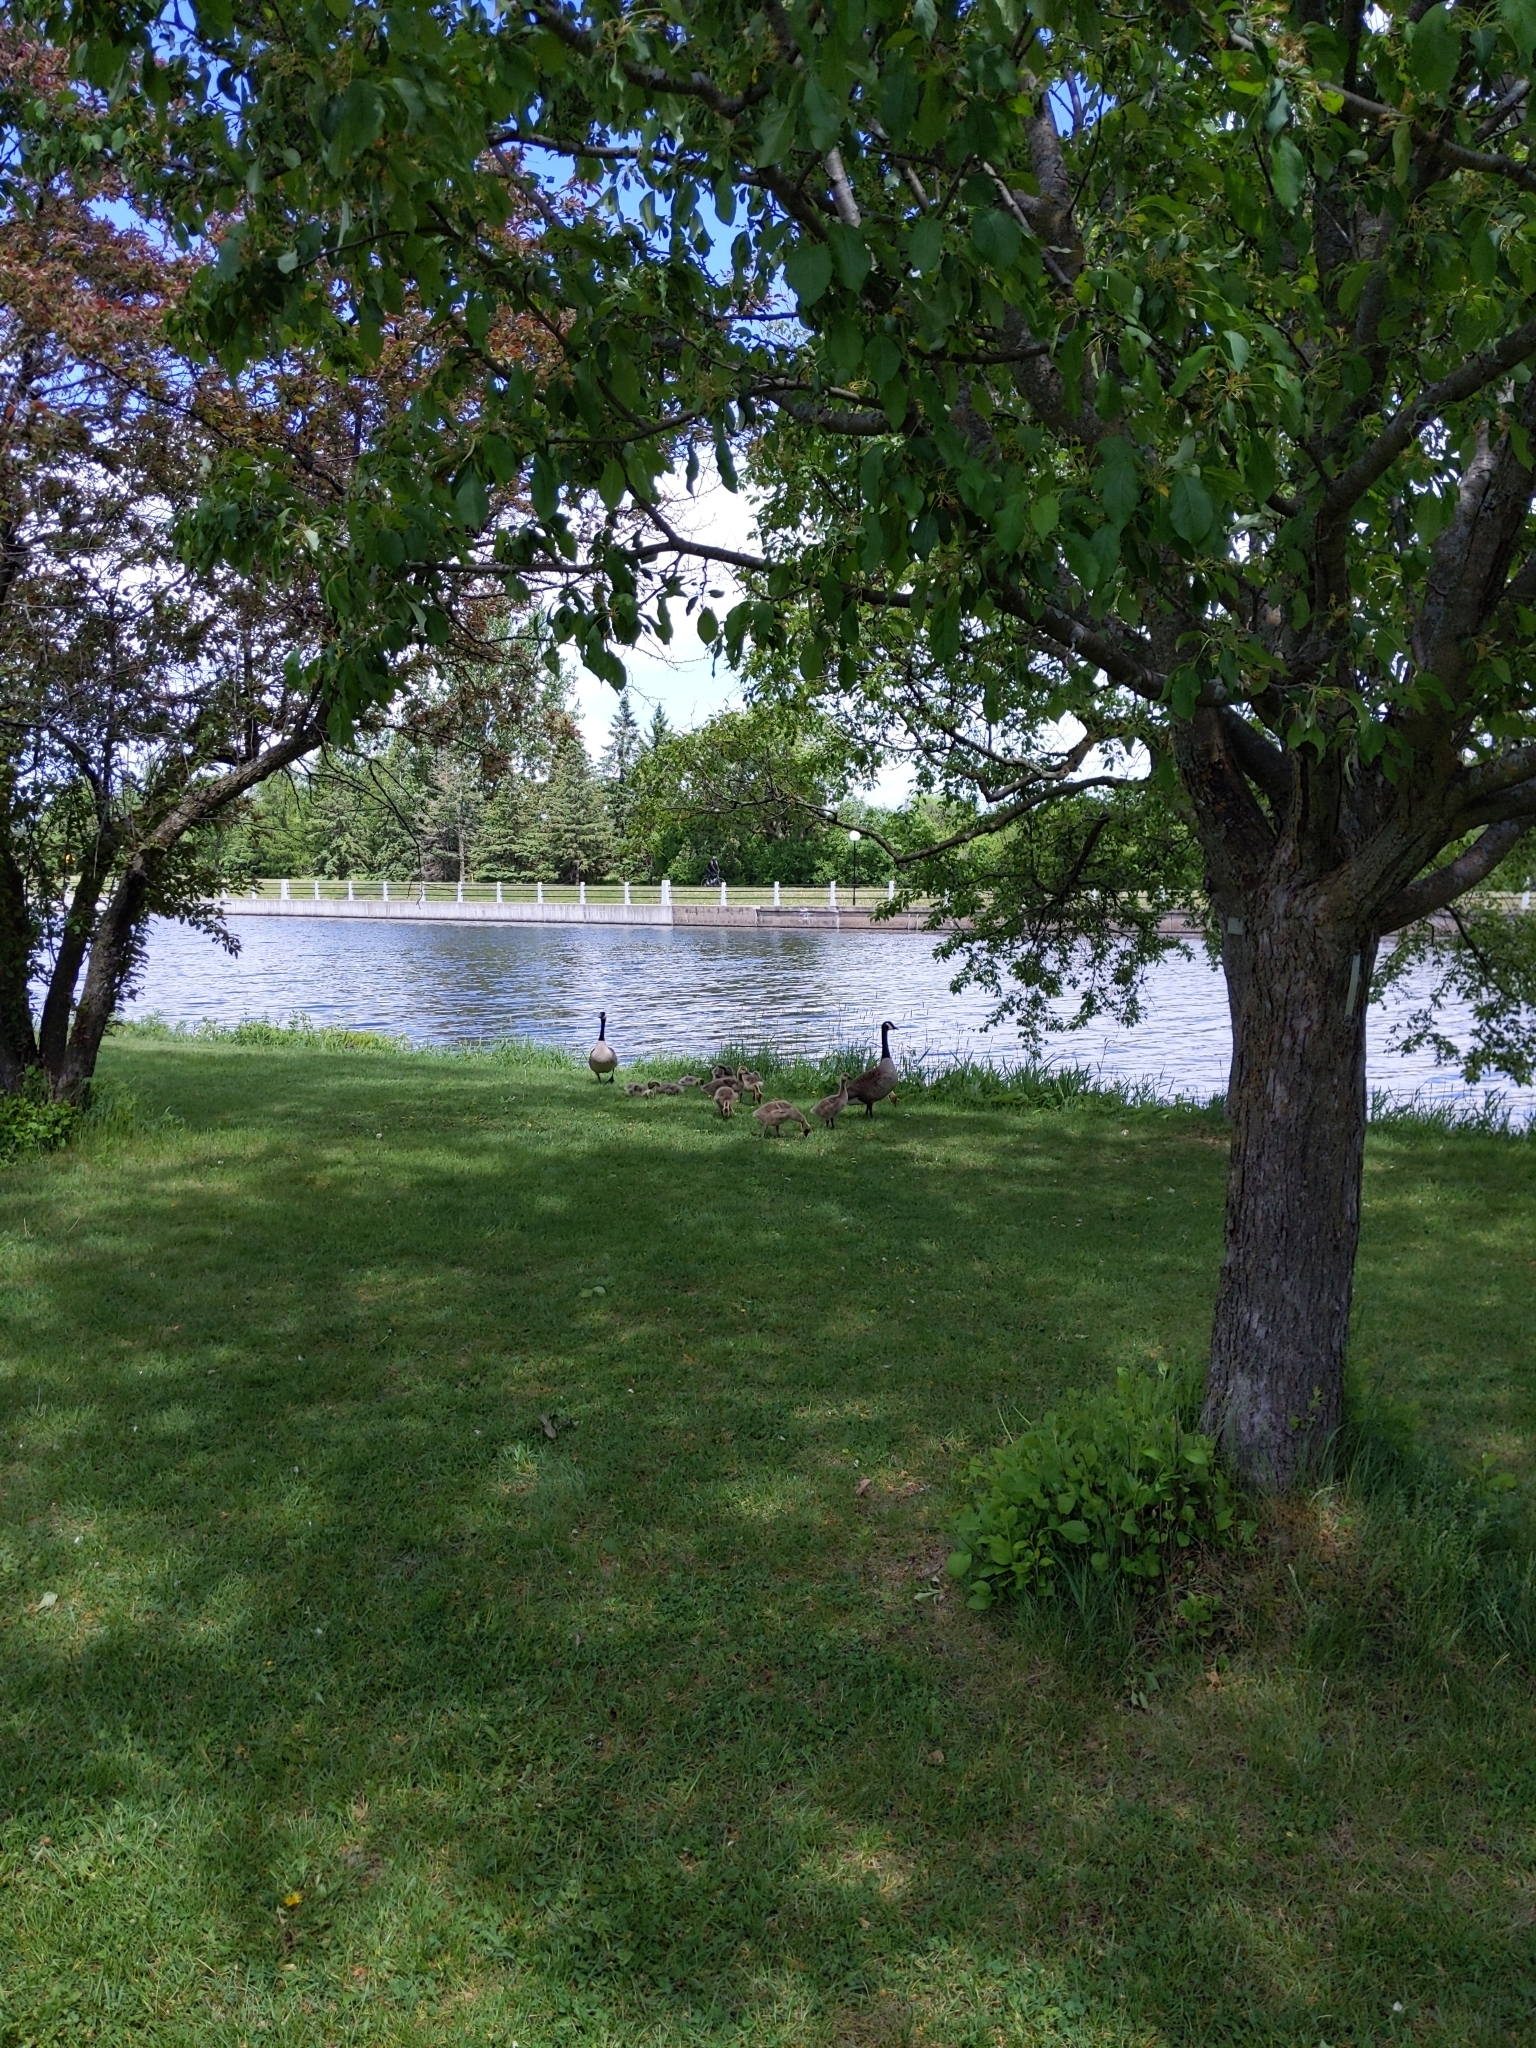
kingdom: Animalia
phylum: Chordata
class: Aves
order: Anseriformes
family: Anatidae
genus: Branta
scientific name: Branta canadensis
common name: Canada goose
